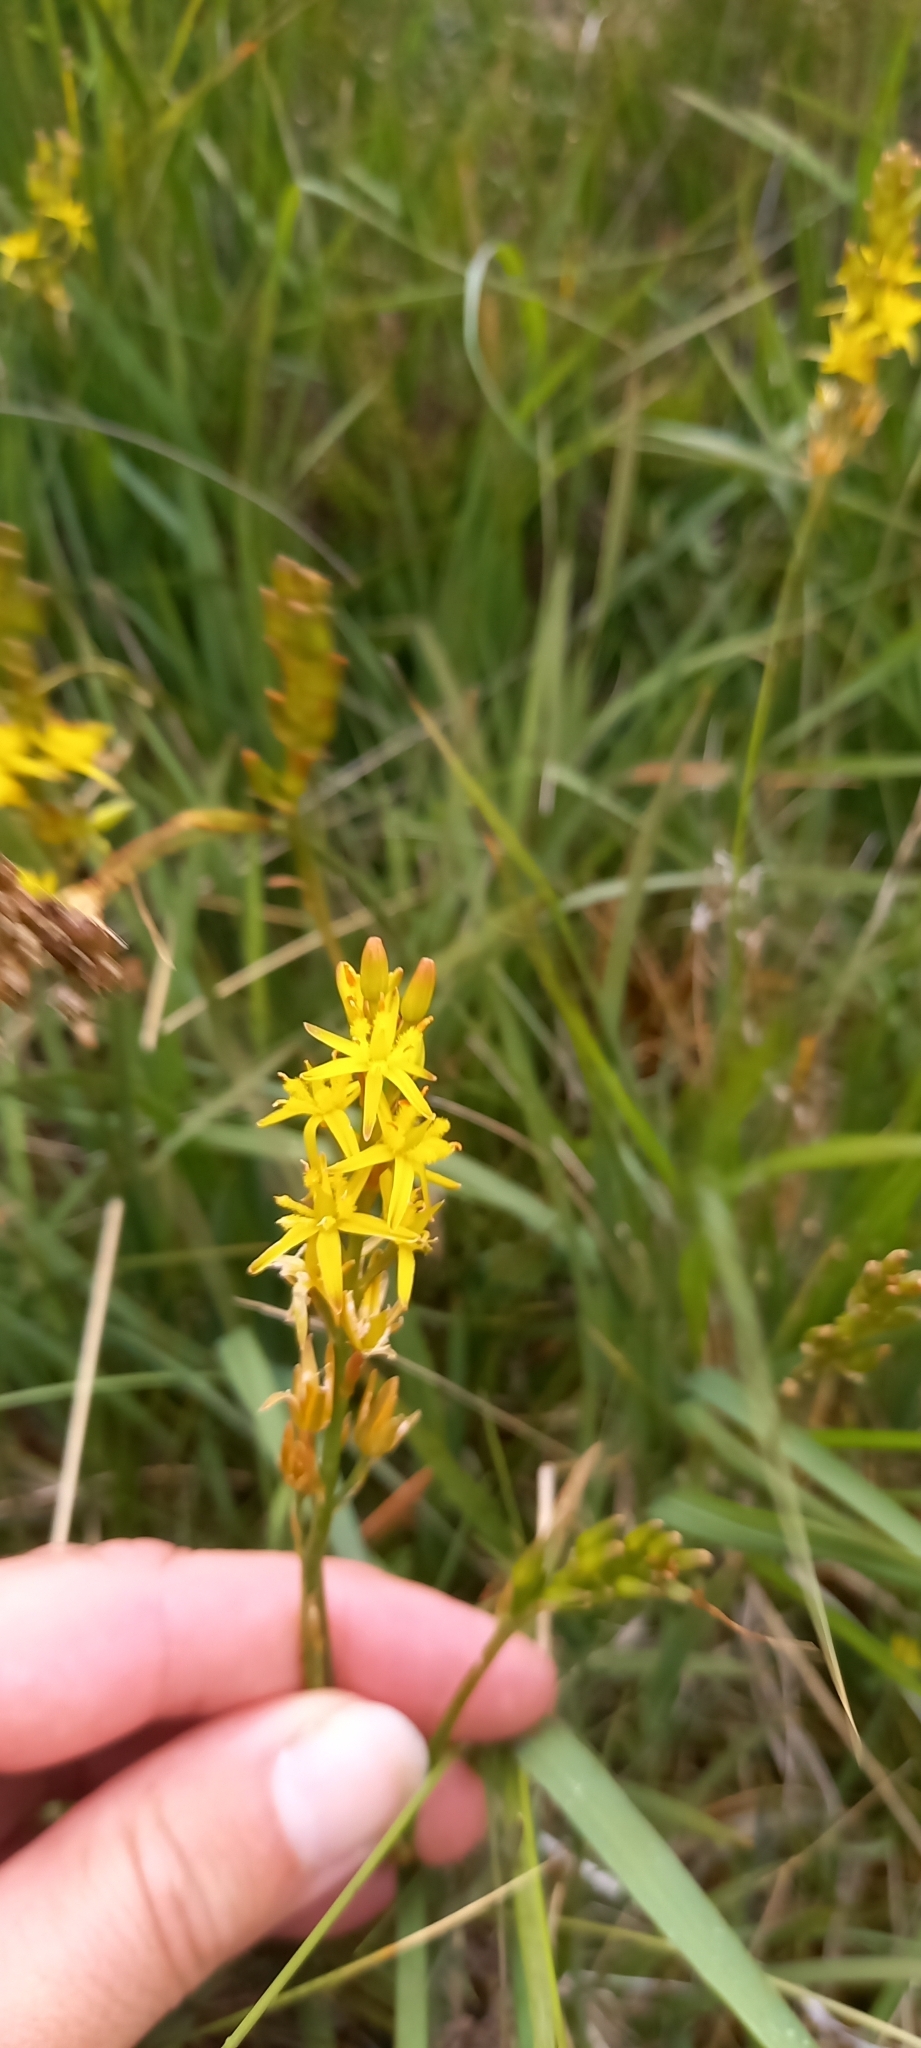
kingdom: Plantae
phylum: Tracheophyta
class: Liliopsida
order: Dioscoreales
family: Nartheciaceae
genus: Narthecium
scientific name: Narthecium ossifragum
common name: Bog asphodel
